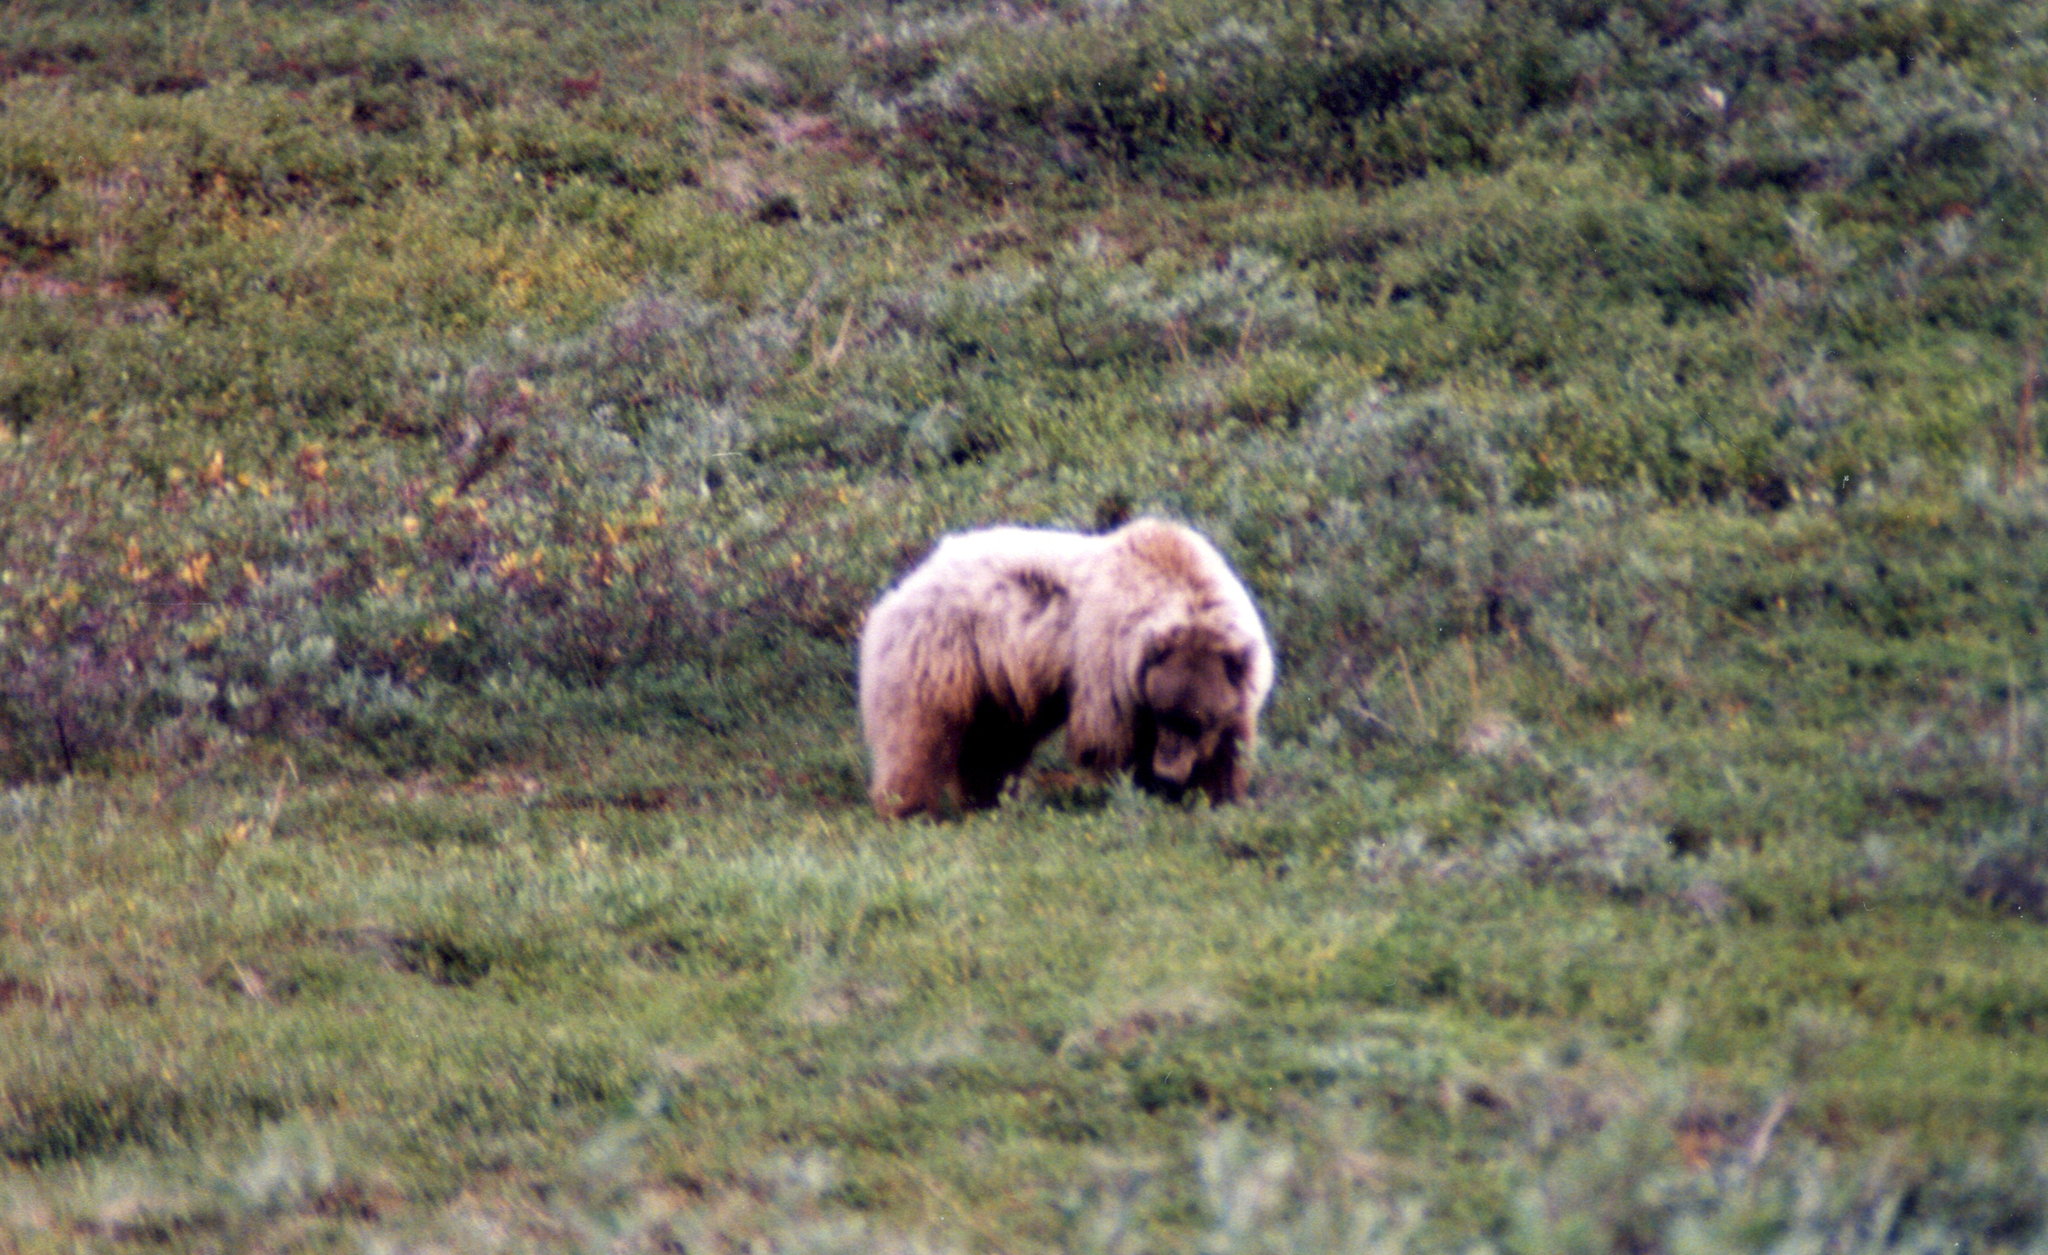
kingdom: Animalia
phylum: Chordata
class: Mammalia
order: Carnivora
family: Ursidae
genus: Ursus
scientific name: Ursus arctos
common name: Brown bear
